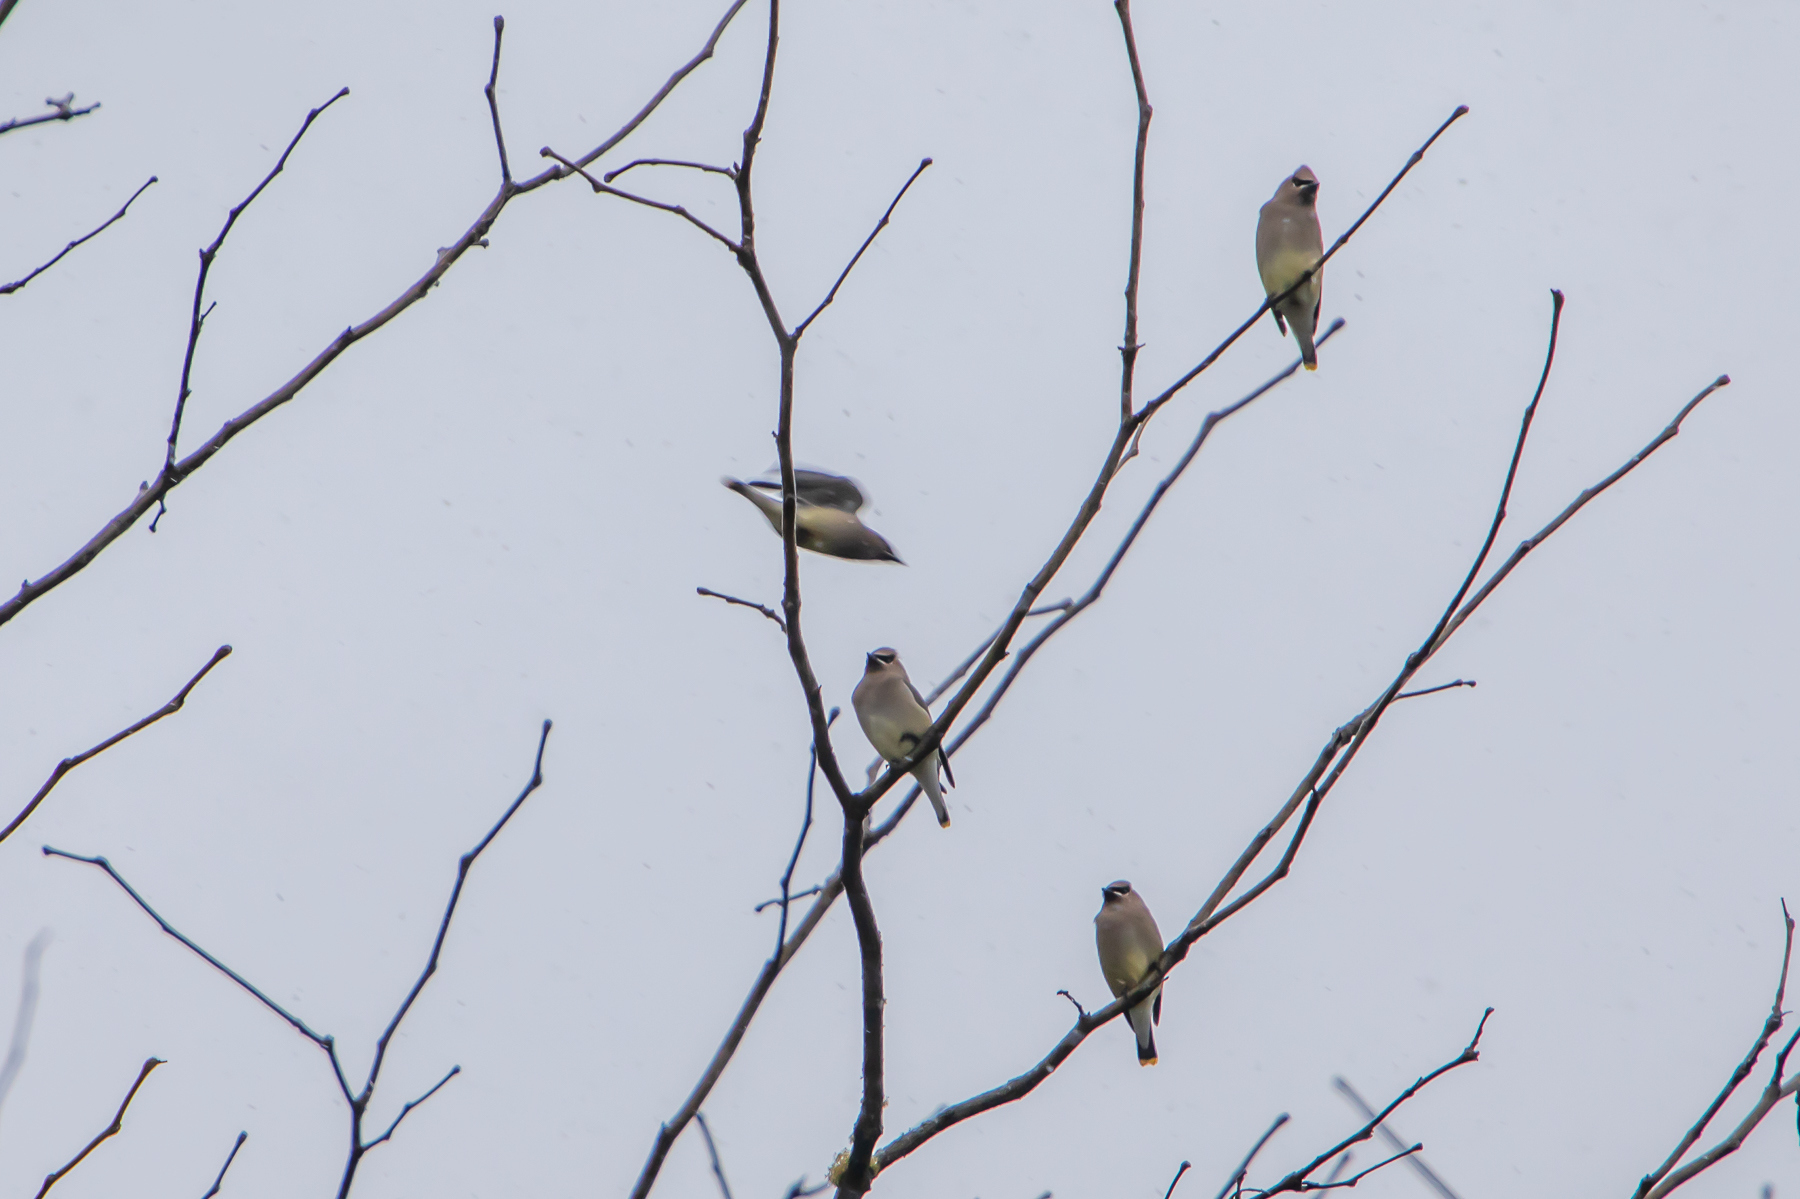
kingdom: Animalia
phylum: Chordata
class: Aves
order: Passeriformes
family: Bombycillidae
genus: Bombycilla
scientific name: Bombycilla cedrorum
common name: Cedar waxwing
